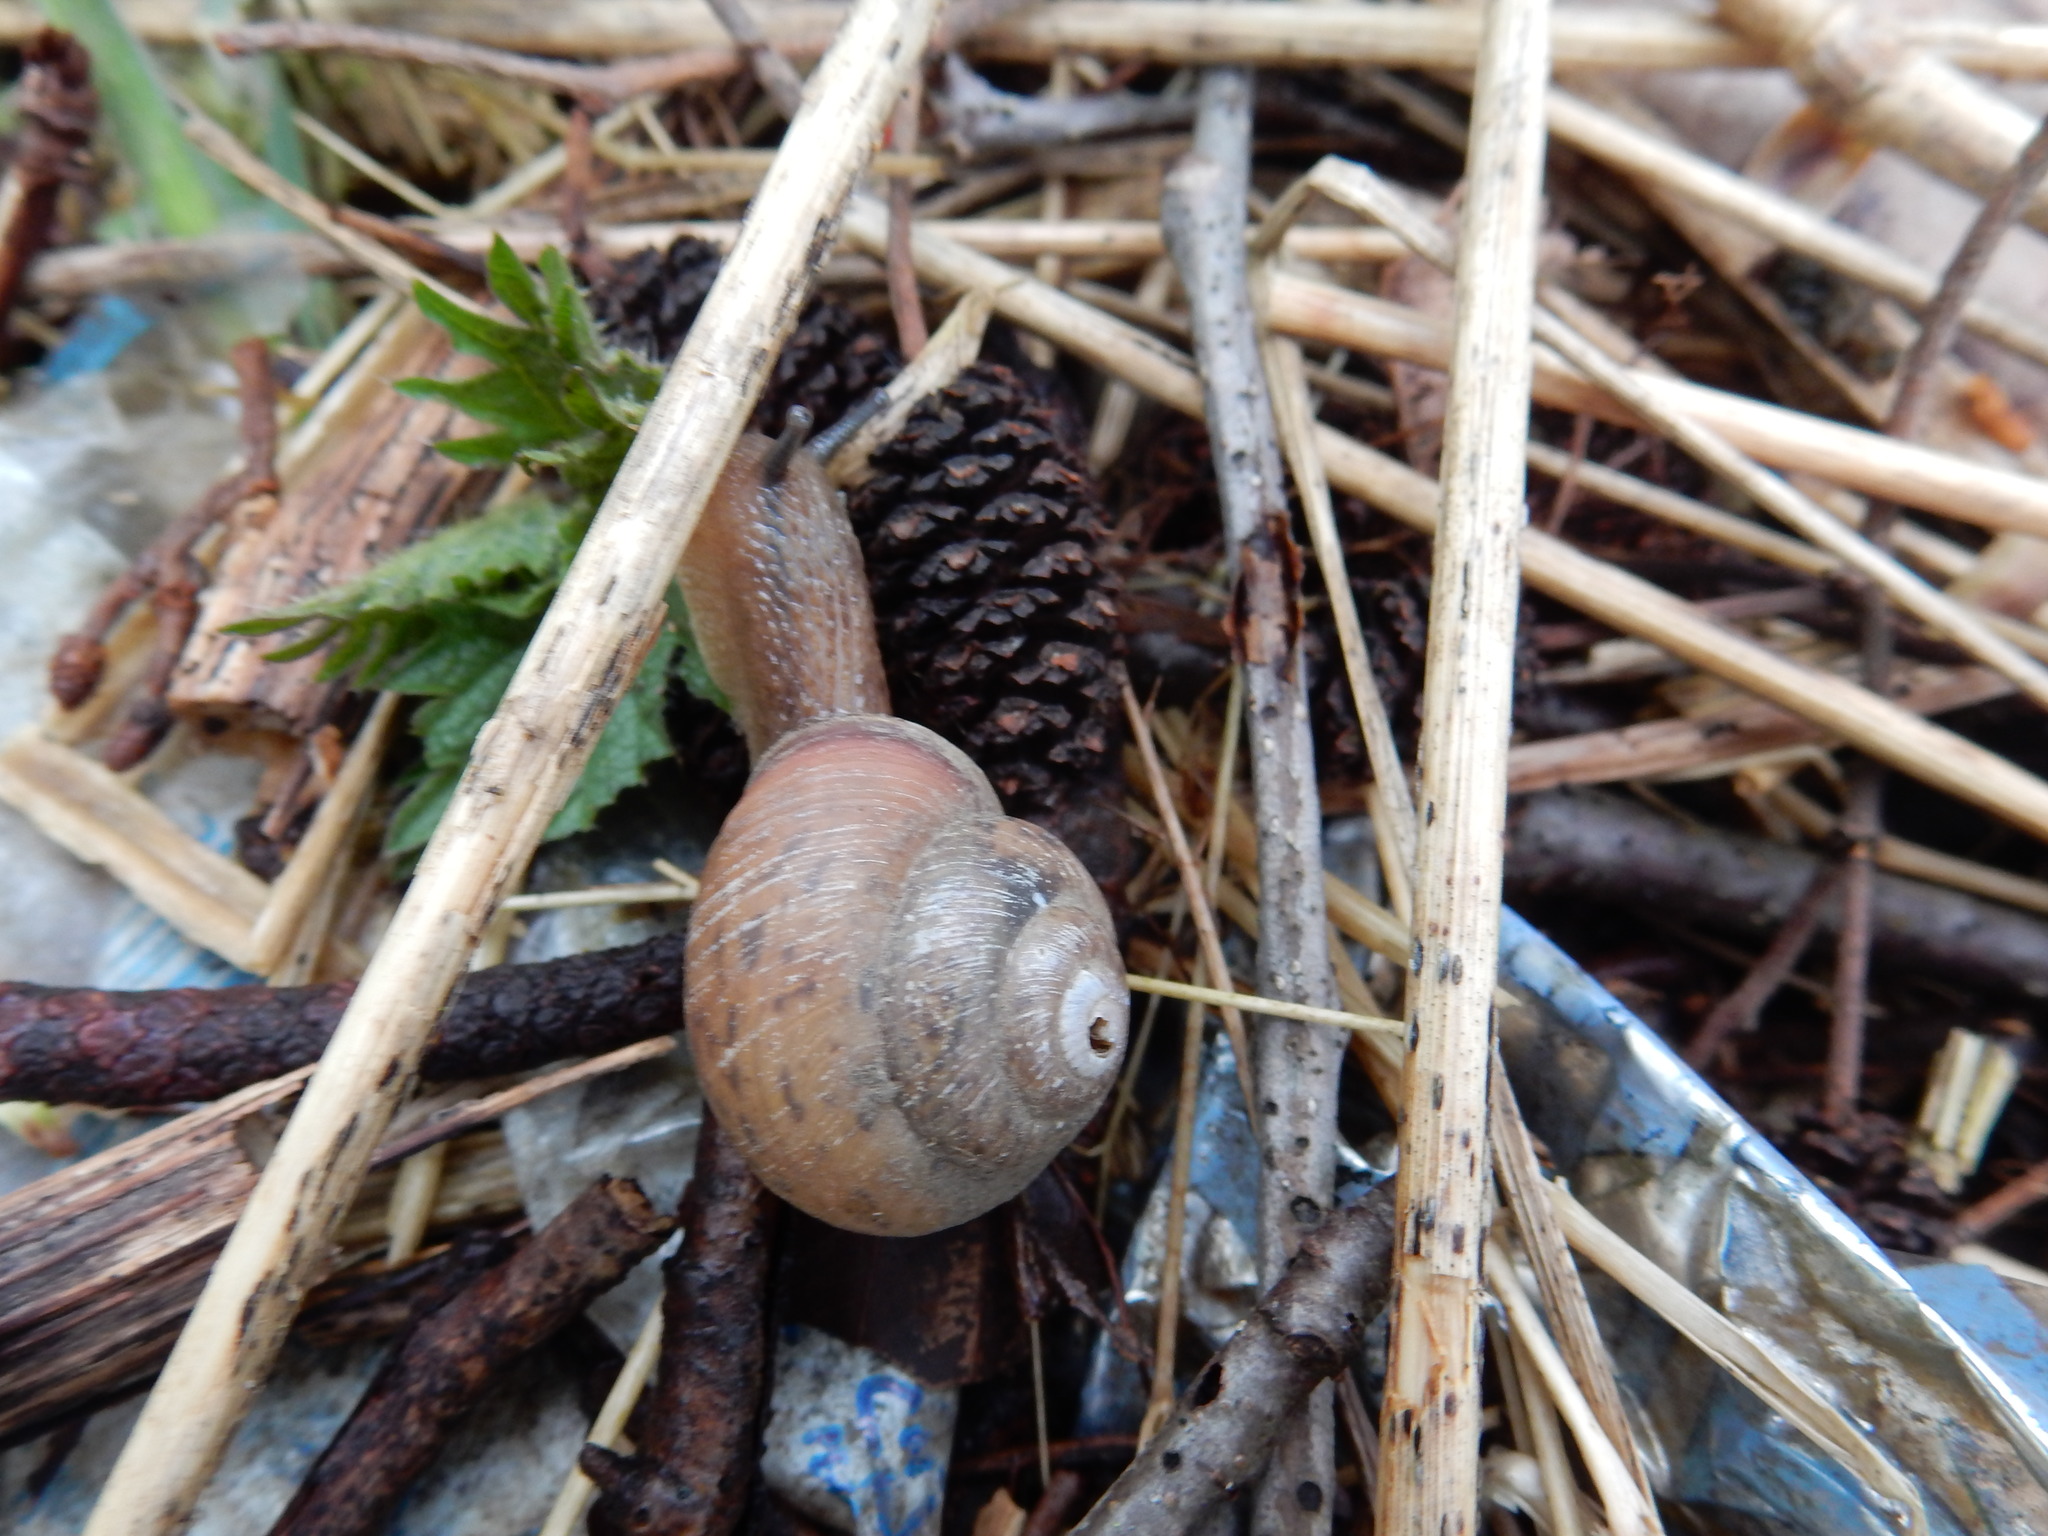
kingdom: Animalia
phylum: Mollusca
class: Gastropoda
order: Stylommatophora
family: Camaenidae
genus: Fruticicola
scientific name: Fruticicola fruticum
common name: Bush snail
